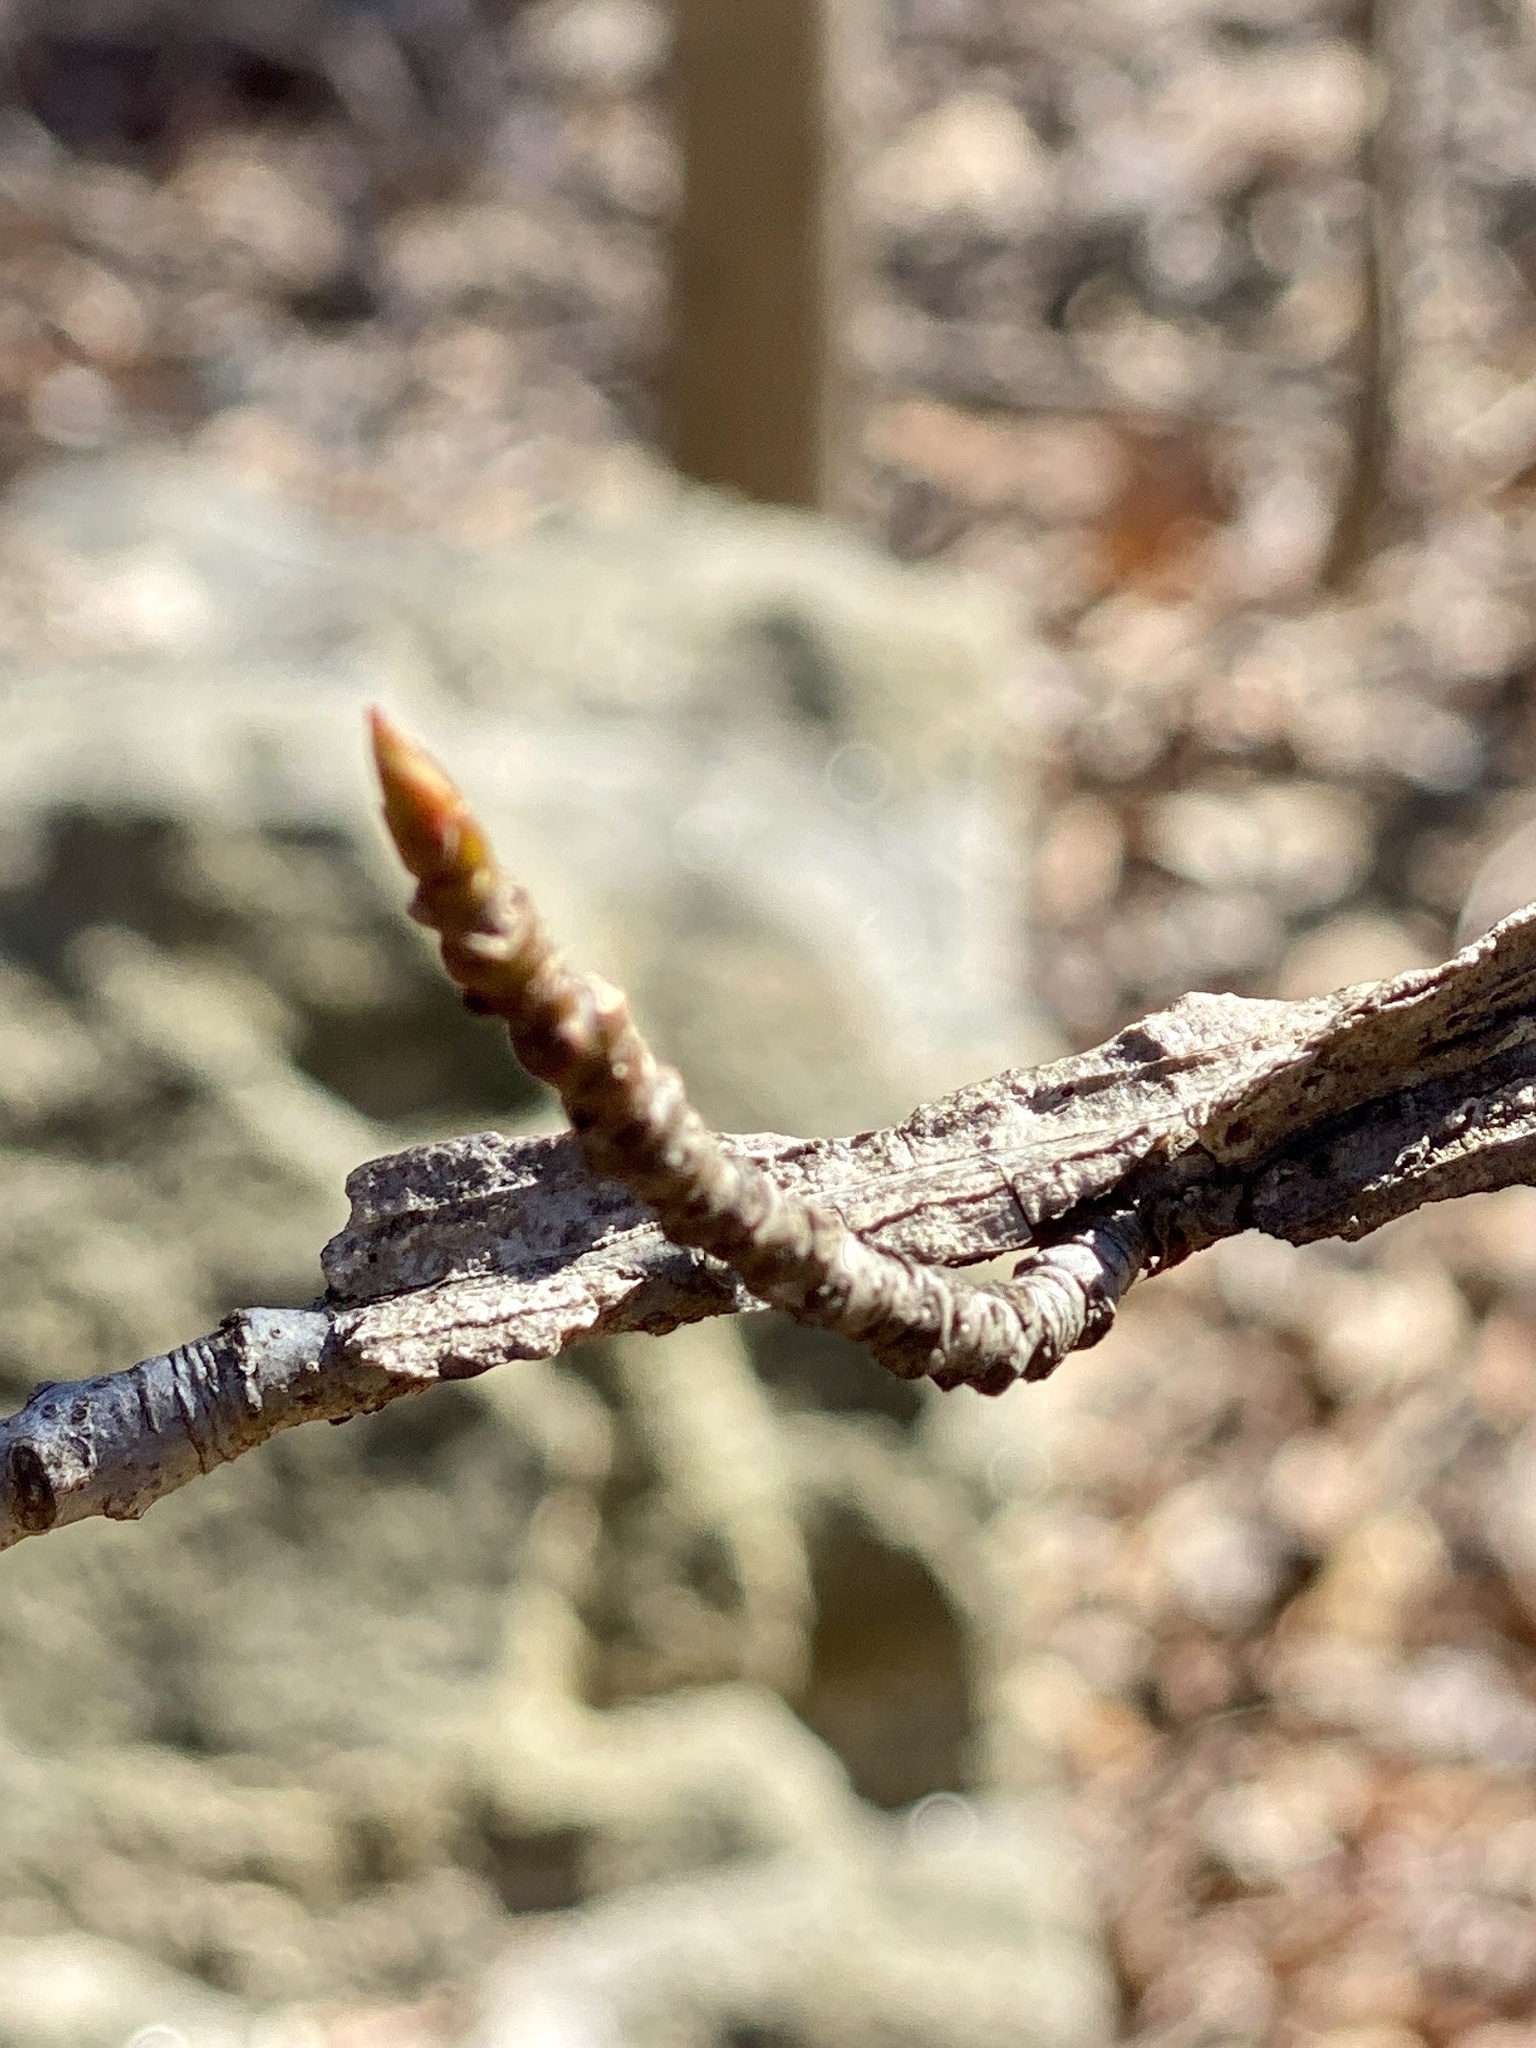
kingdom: Plantae
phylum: Tracheophyta
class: Magnoliopsida
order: Saxifragales
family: Altingiaceae
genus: Liquidambar
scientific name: Liquidambar styraciflua
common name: Sweet gum
